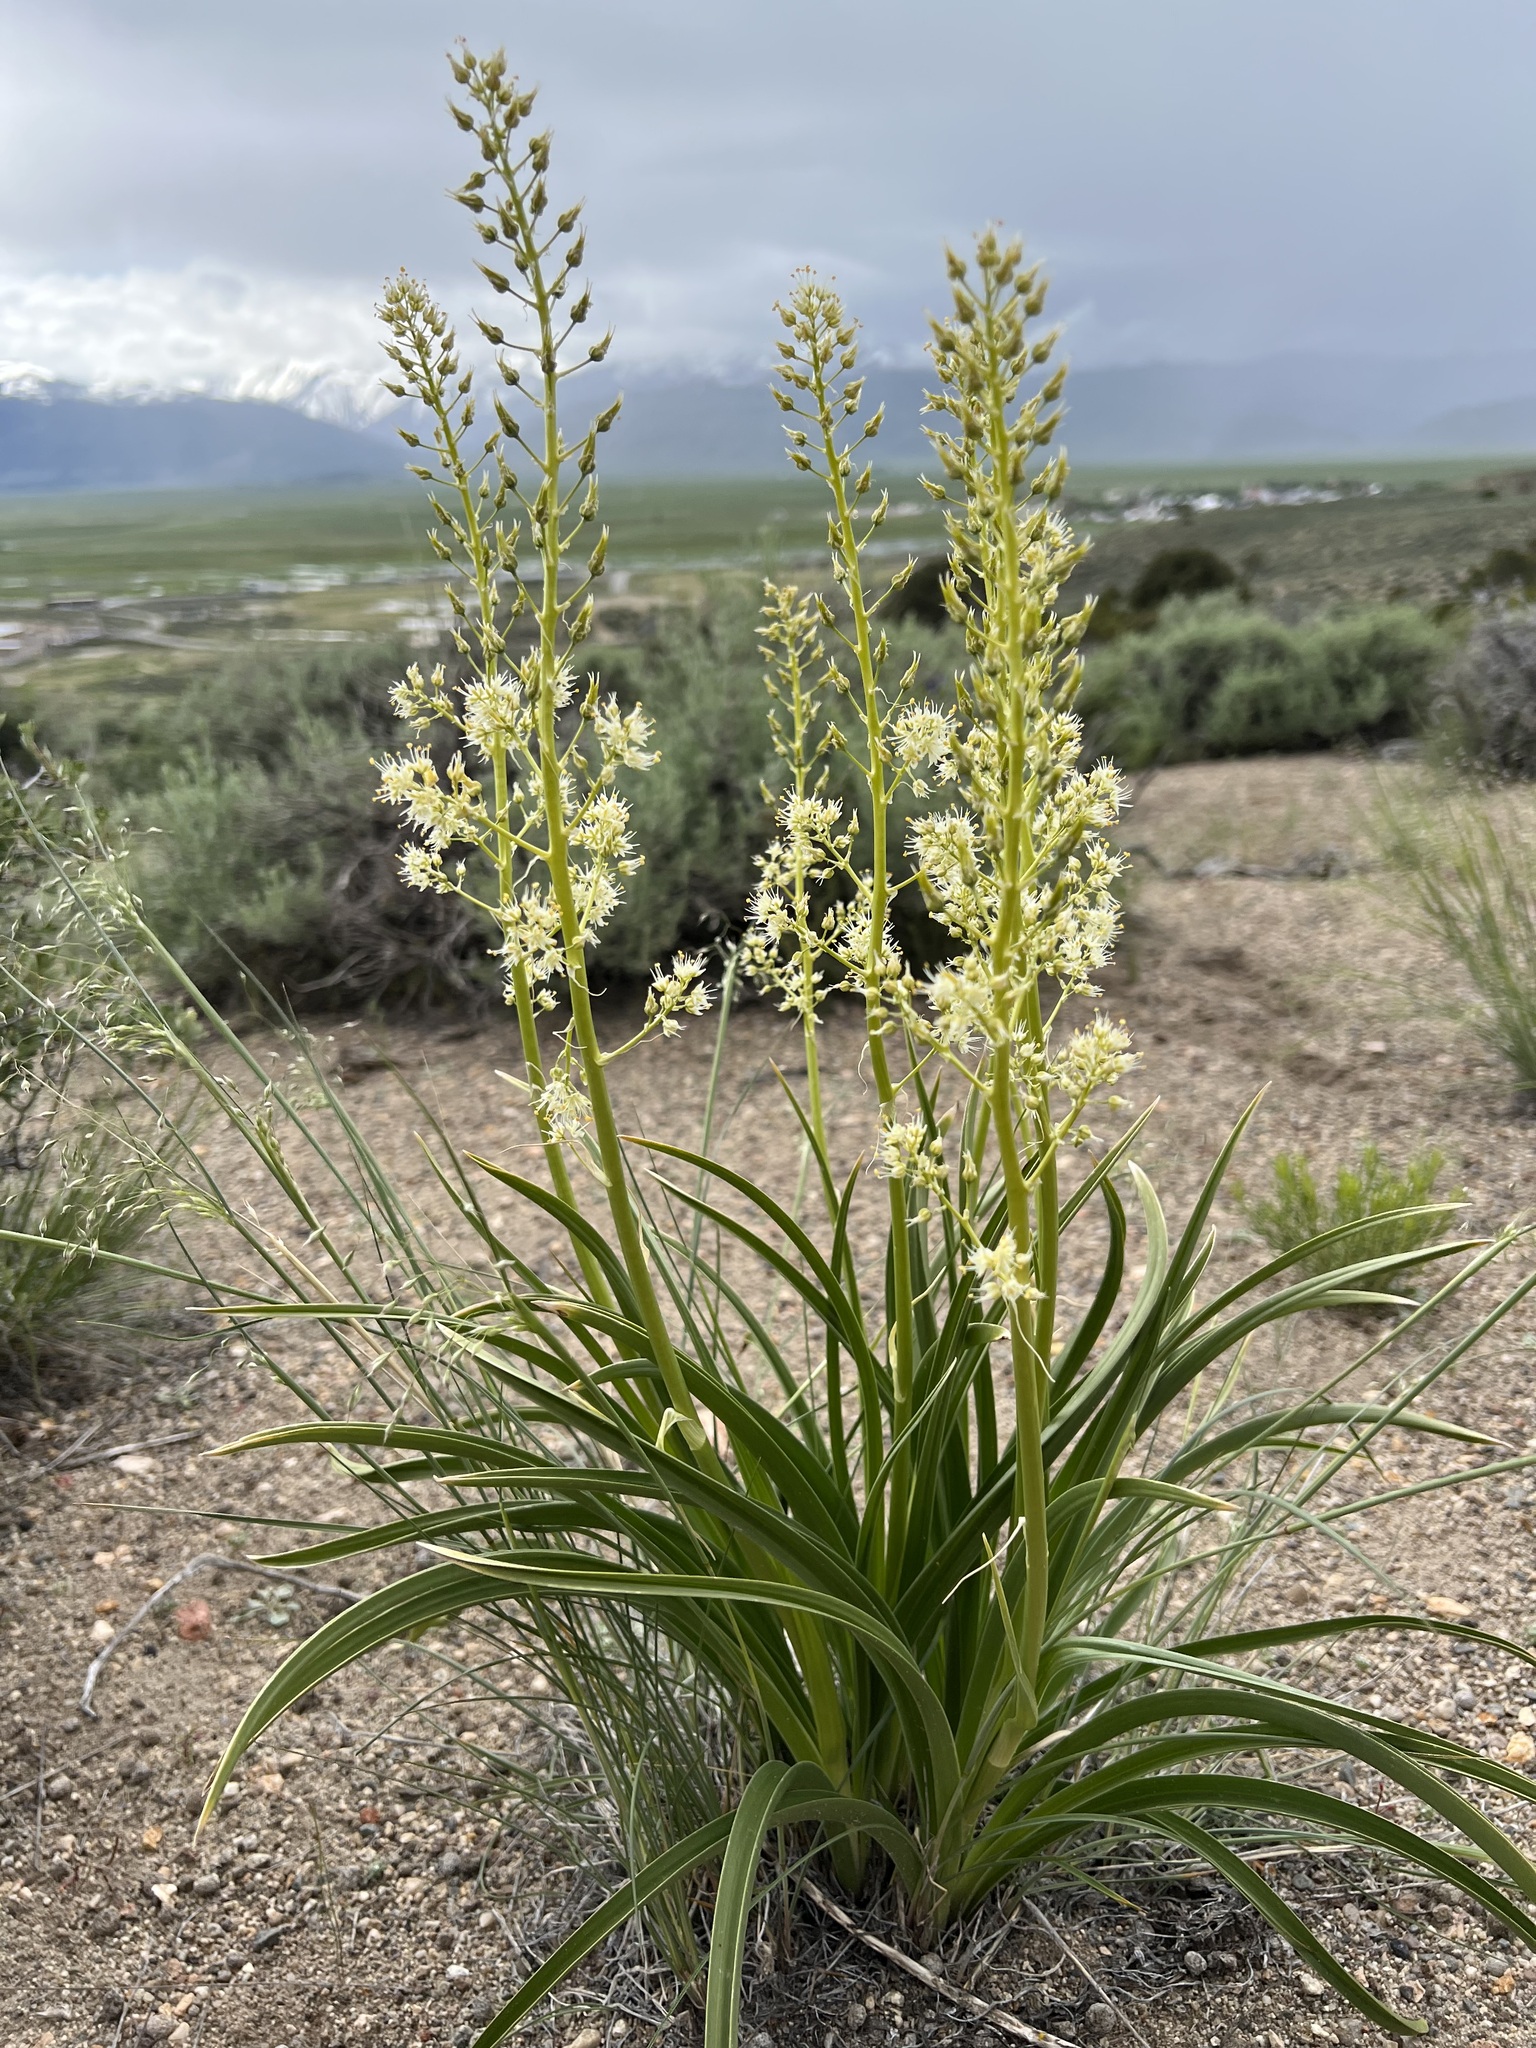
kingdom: Plantae
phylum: Tracheophyta
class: Liliopsida
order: Liliales
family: Melanthiaceae
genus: Toxicoscordion
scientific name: Toxicoscordion paniculatum
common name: Foothill death camas
